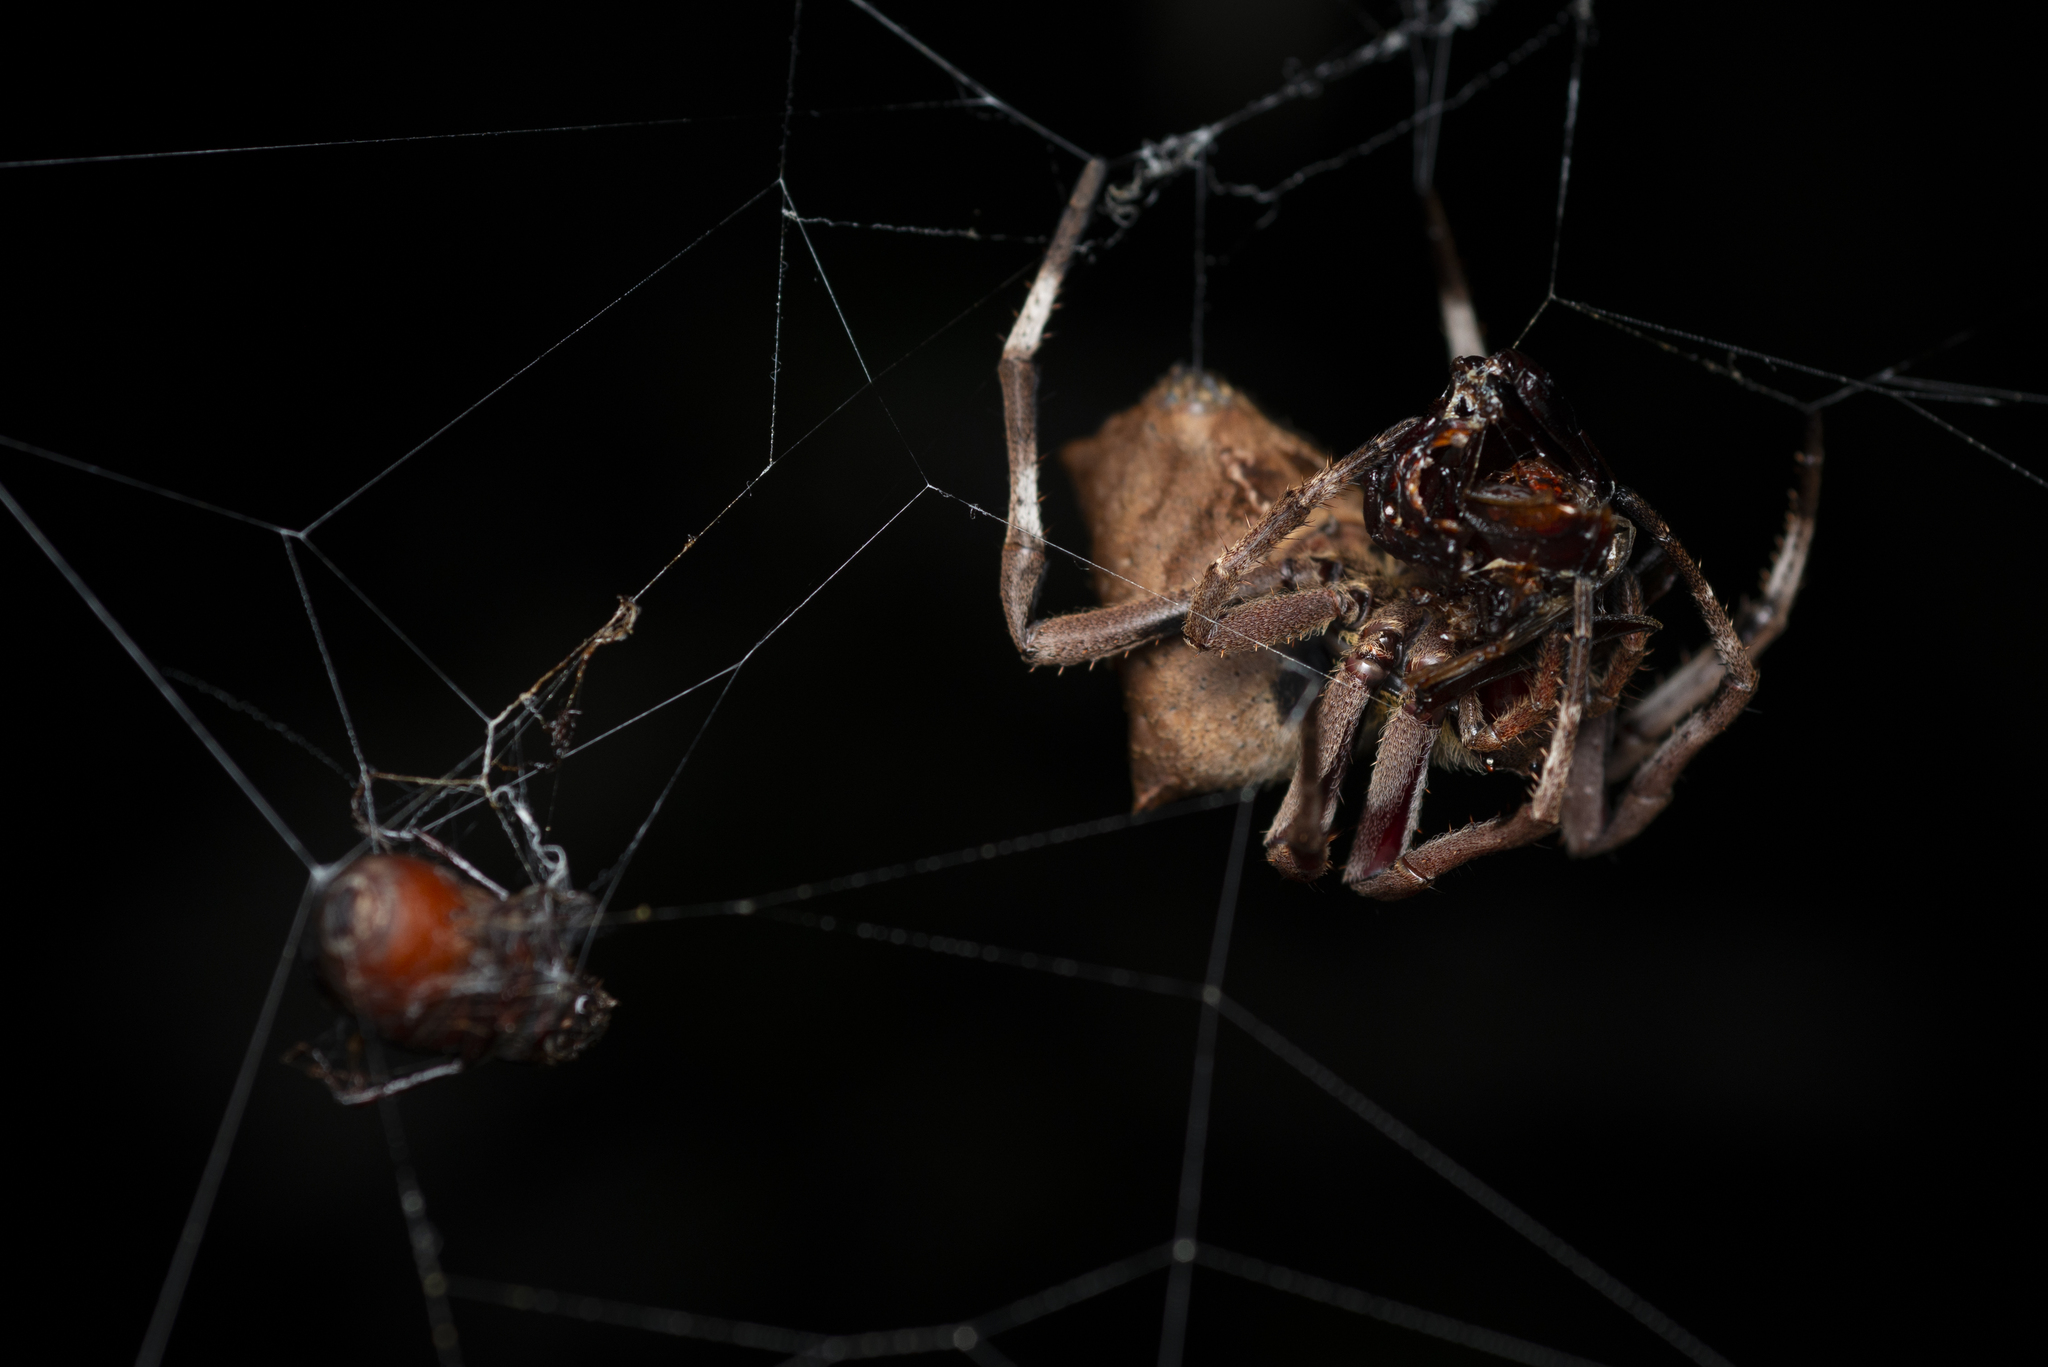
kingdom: Animalia
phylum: Arthropoda
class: Arachnida
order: Araneae
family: Araneidae
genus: Parawixia
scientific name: Parawixia dehaani
